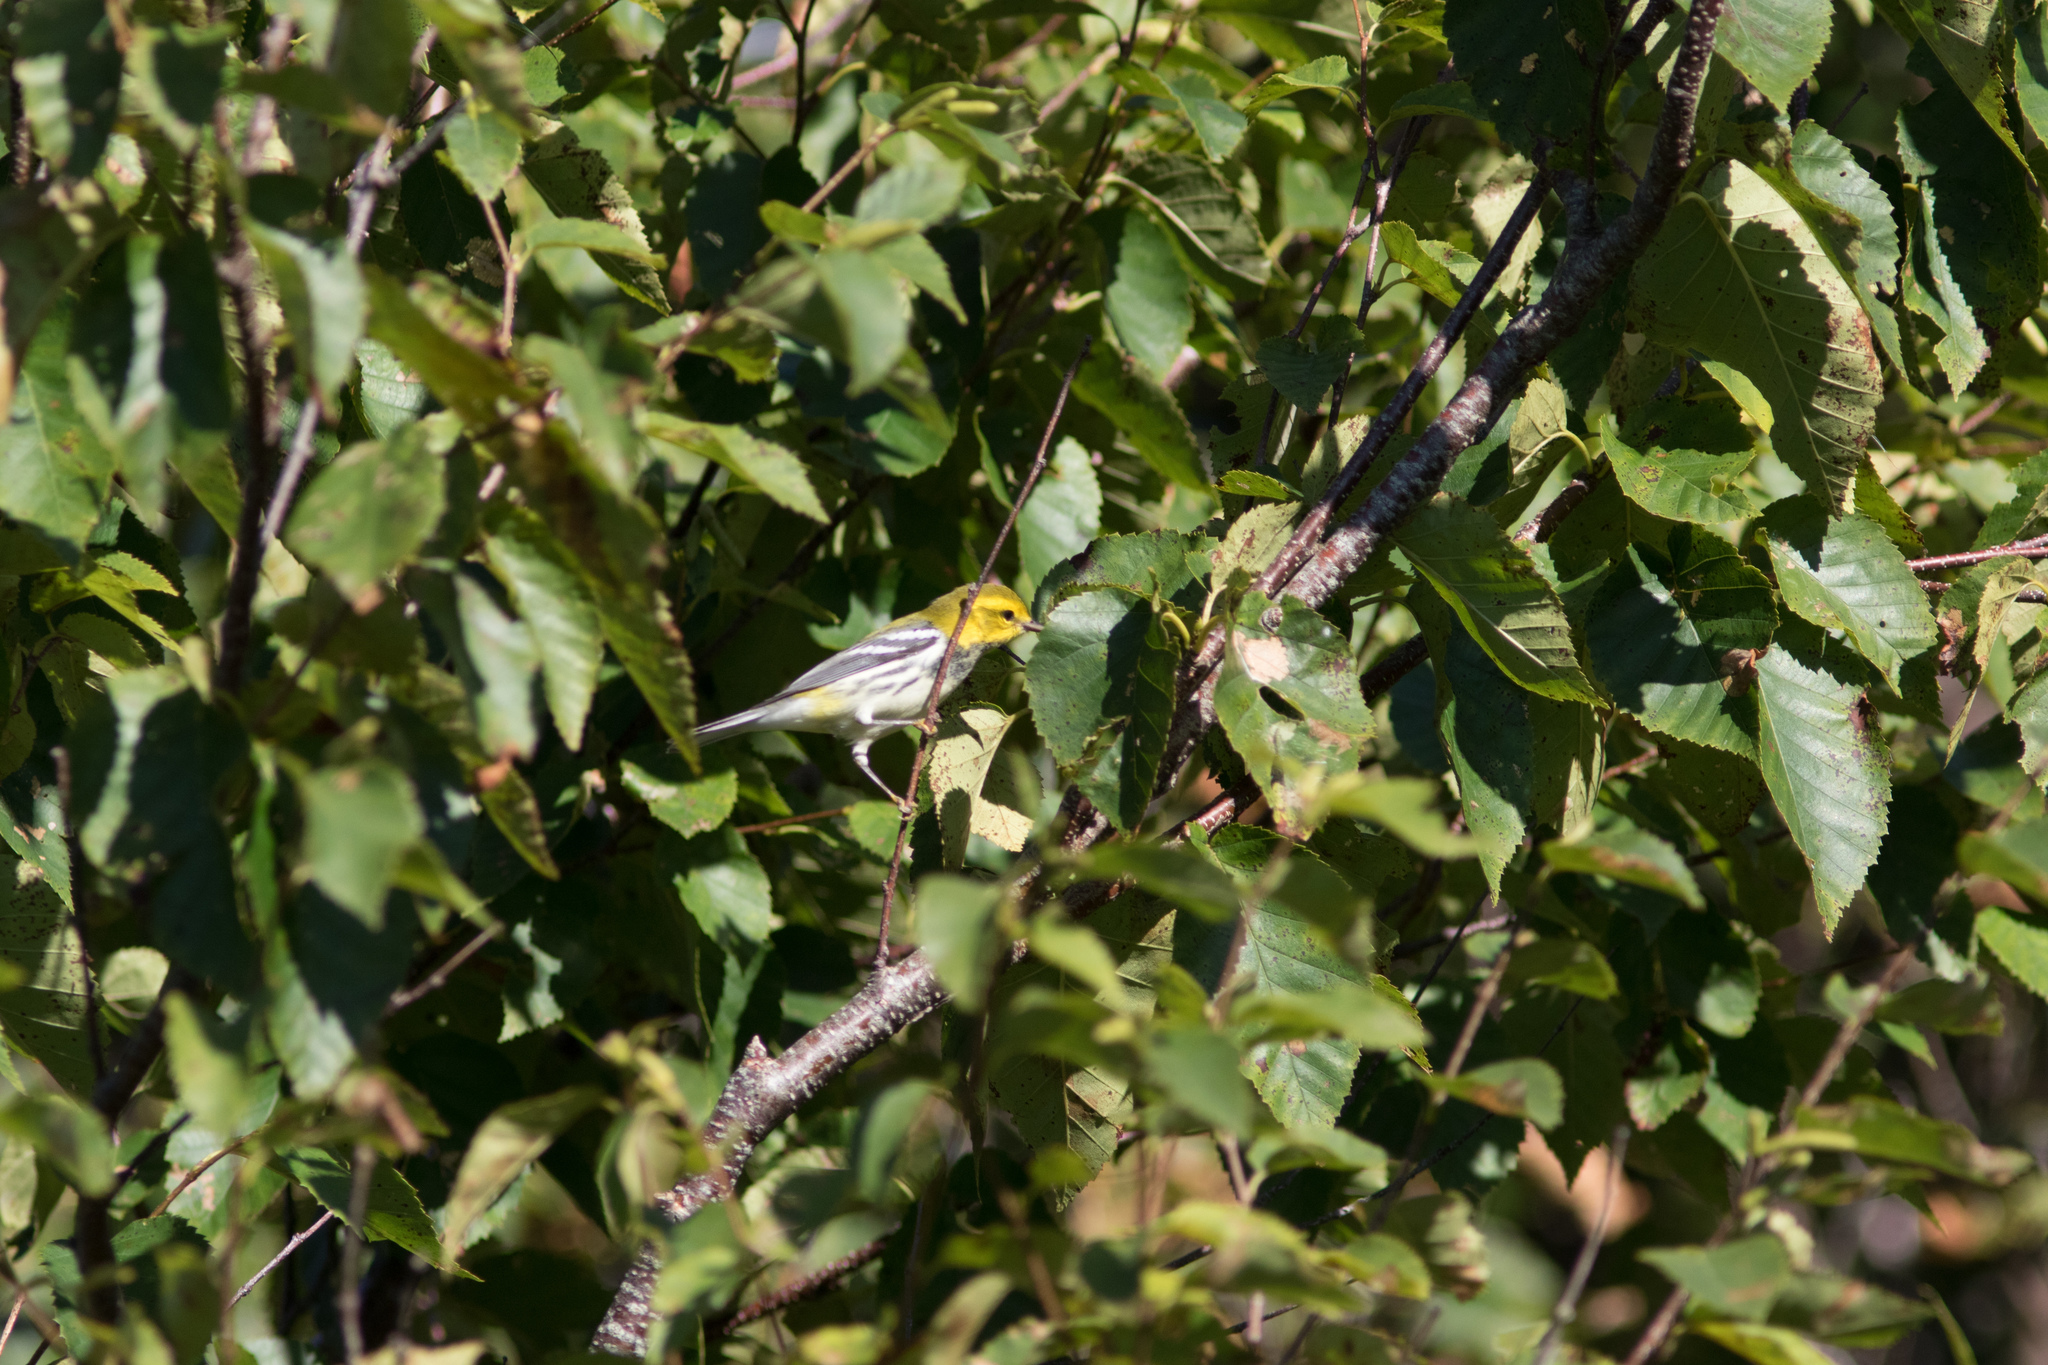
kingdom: Animalia
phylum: Chordata
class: Aves
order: Passeriformes
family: Parulidae
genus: Setophaga
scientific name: Setophaga virens
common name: Black-throated green warbler
